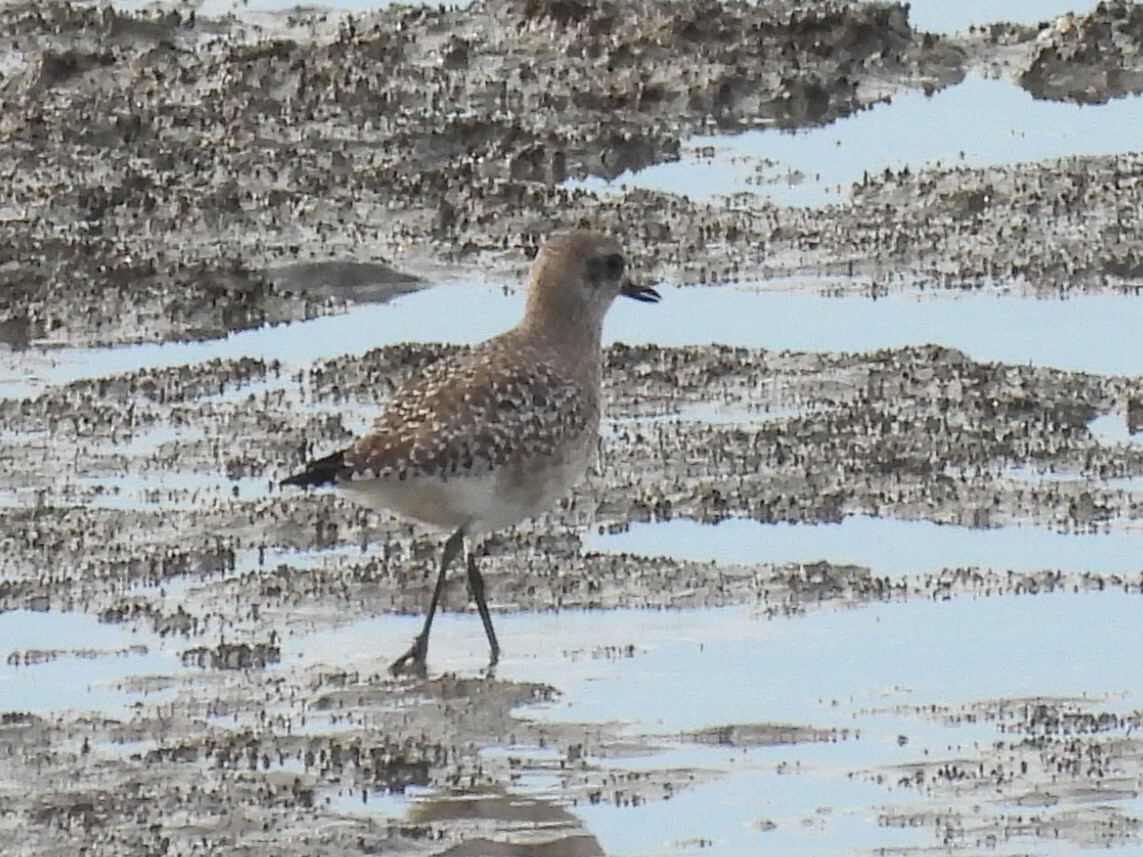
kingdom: Animalia
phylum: Chordata
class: Aves
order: Charadriiformes
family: Charadriidae
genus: Pluvialis
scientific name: Pluvialis squatarola
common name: Grey plover
